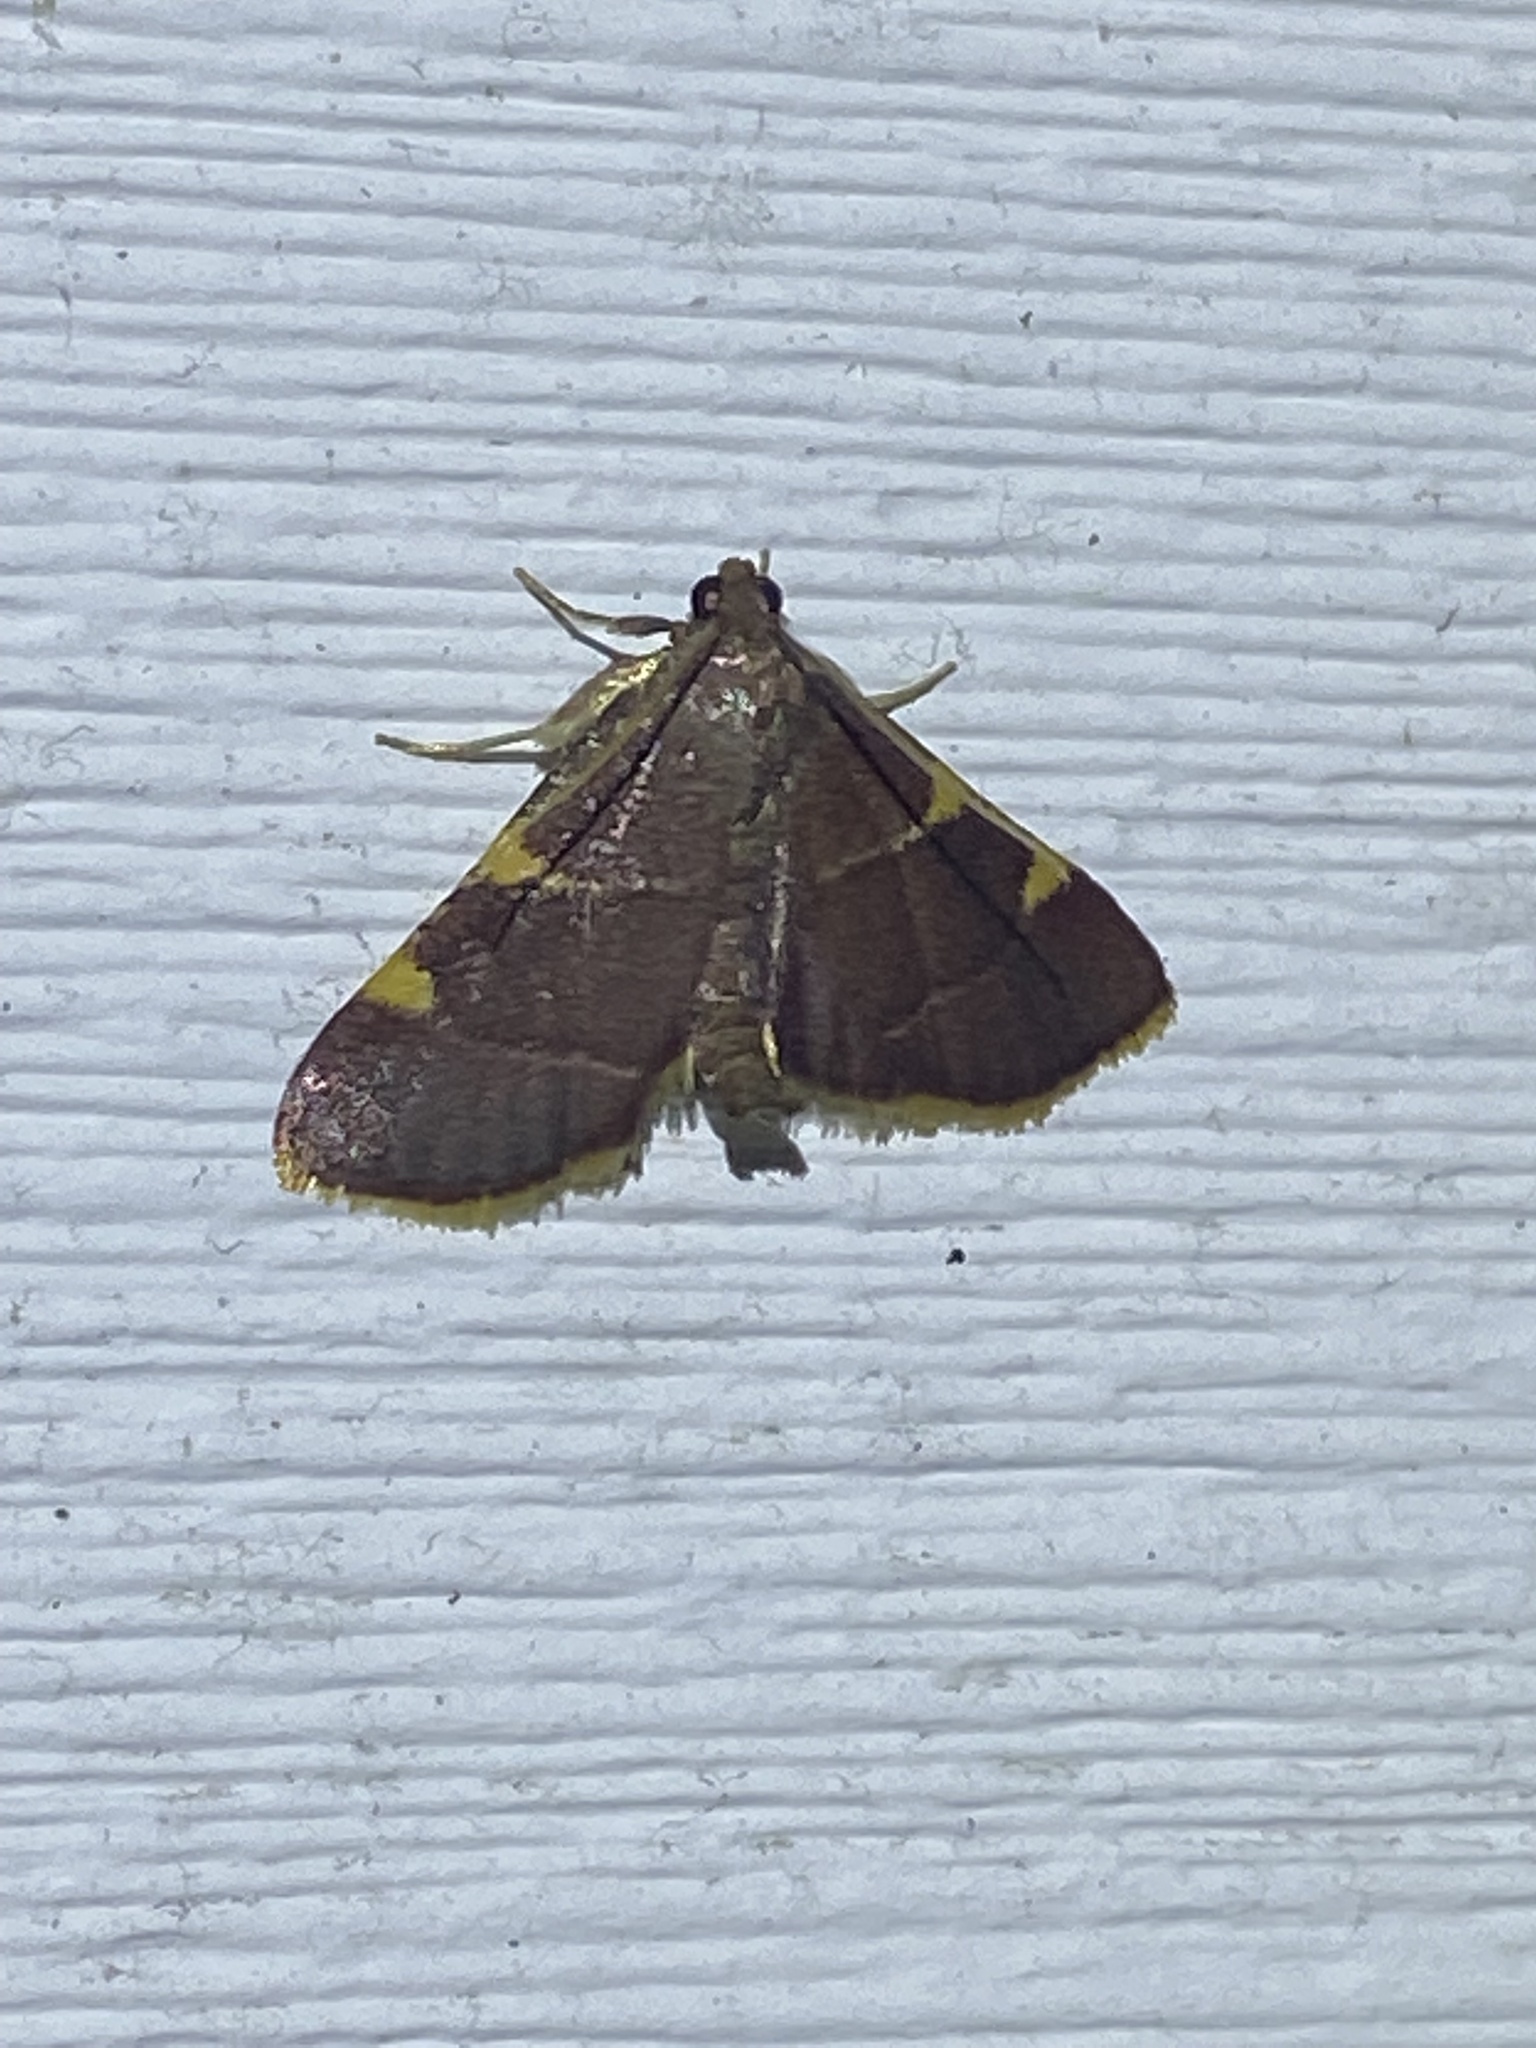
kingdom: Animalia
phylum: Arthropoda
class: Insecta
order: Lepidoptera
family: Pyralidae
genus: Hypsopygia
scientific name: Hypsopygia olinalis
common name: Yellow-fringed dolichomia moth
